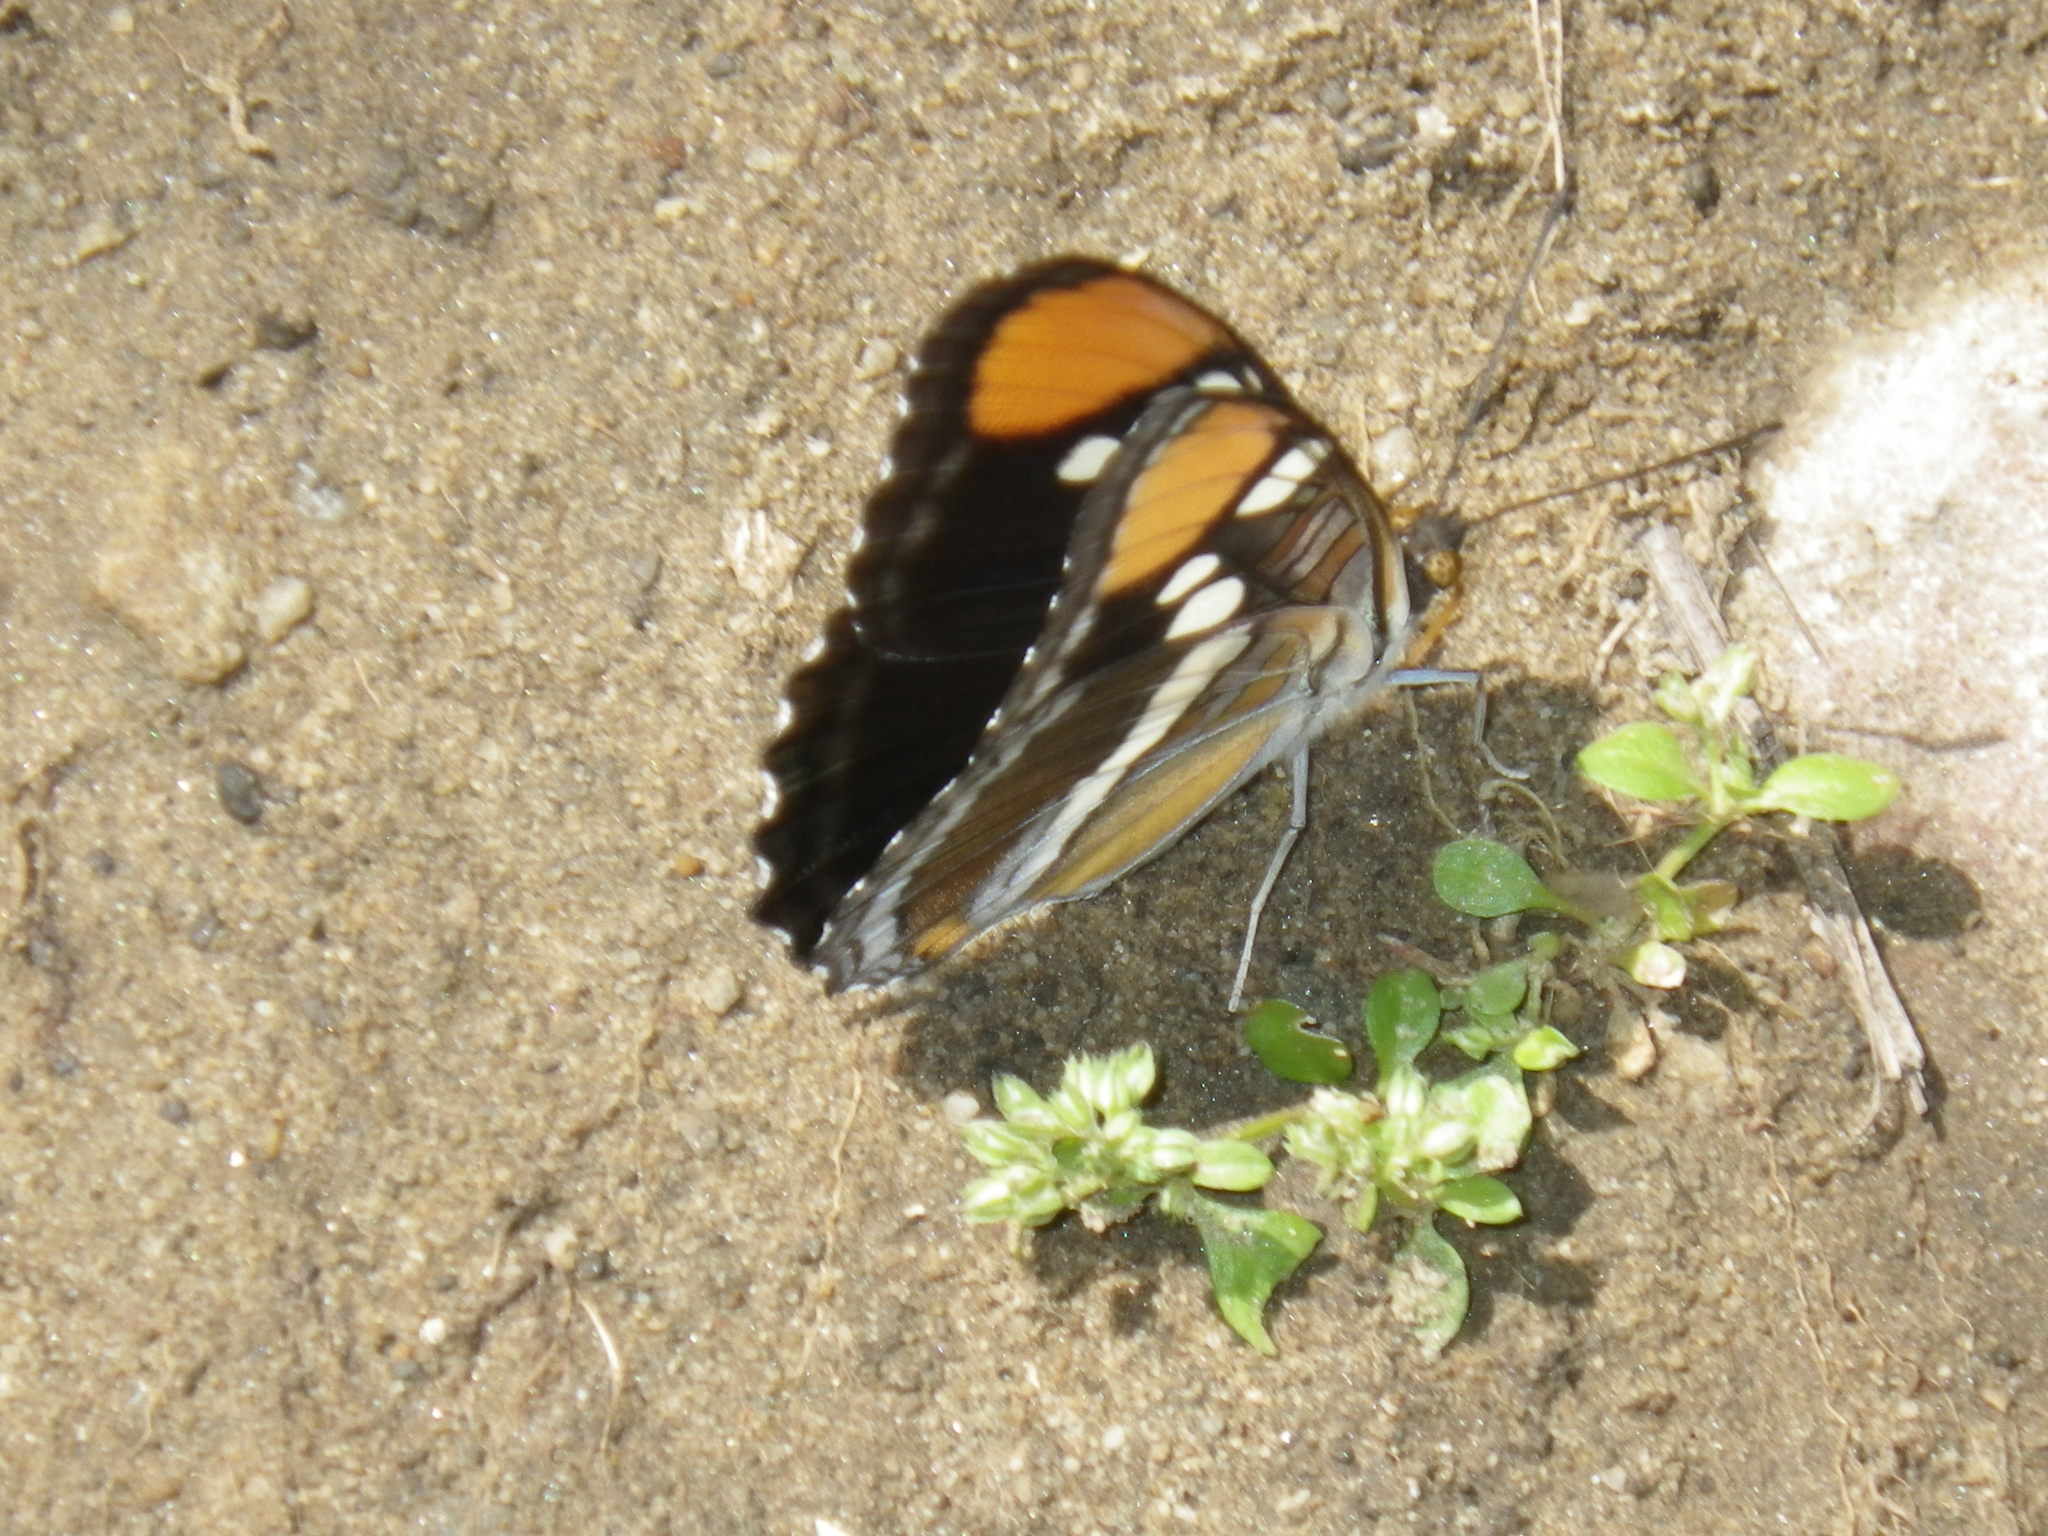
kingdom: Animalia
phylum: Arthropoda
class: Insecta
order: Lepidoptera
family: Nymphalidae
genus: Limenitis
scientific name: Limenitis bredowii
